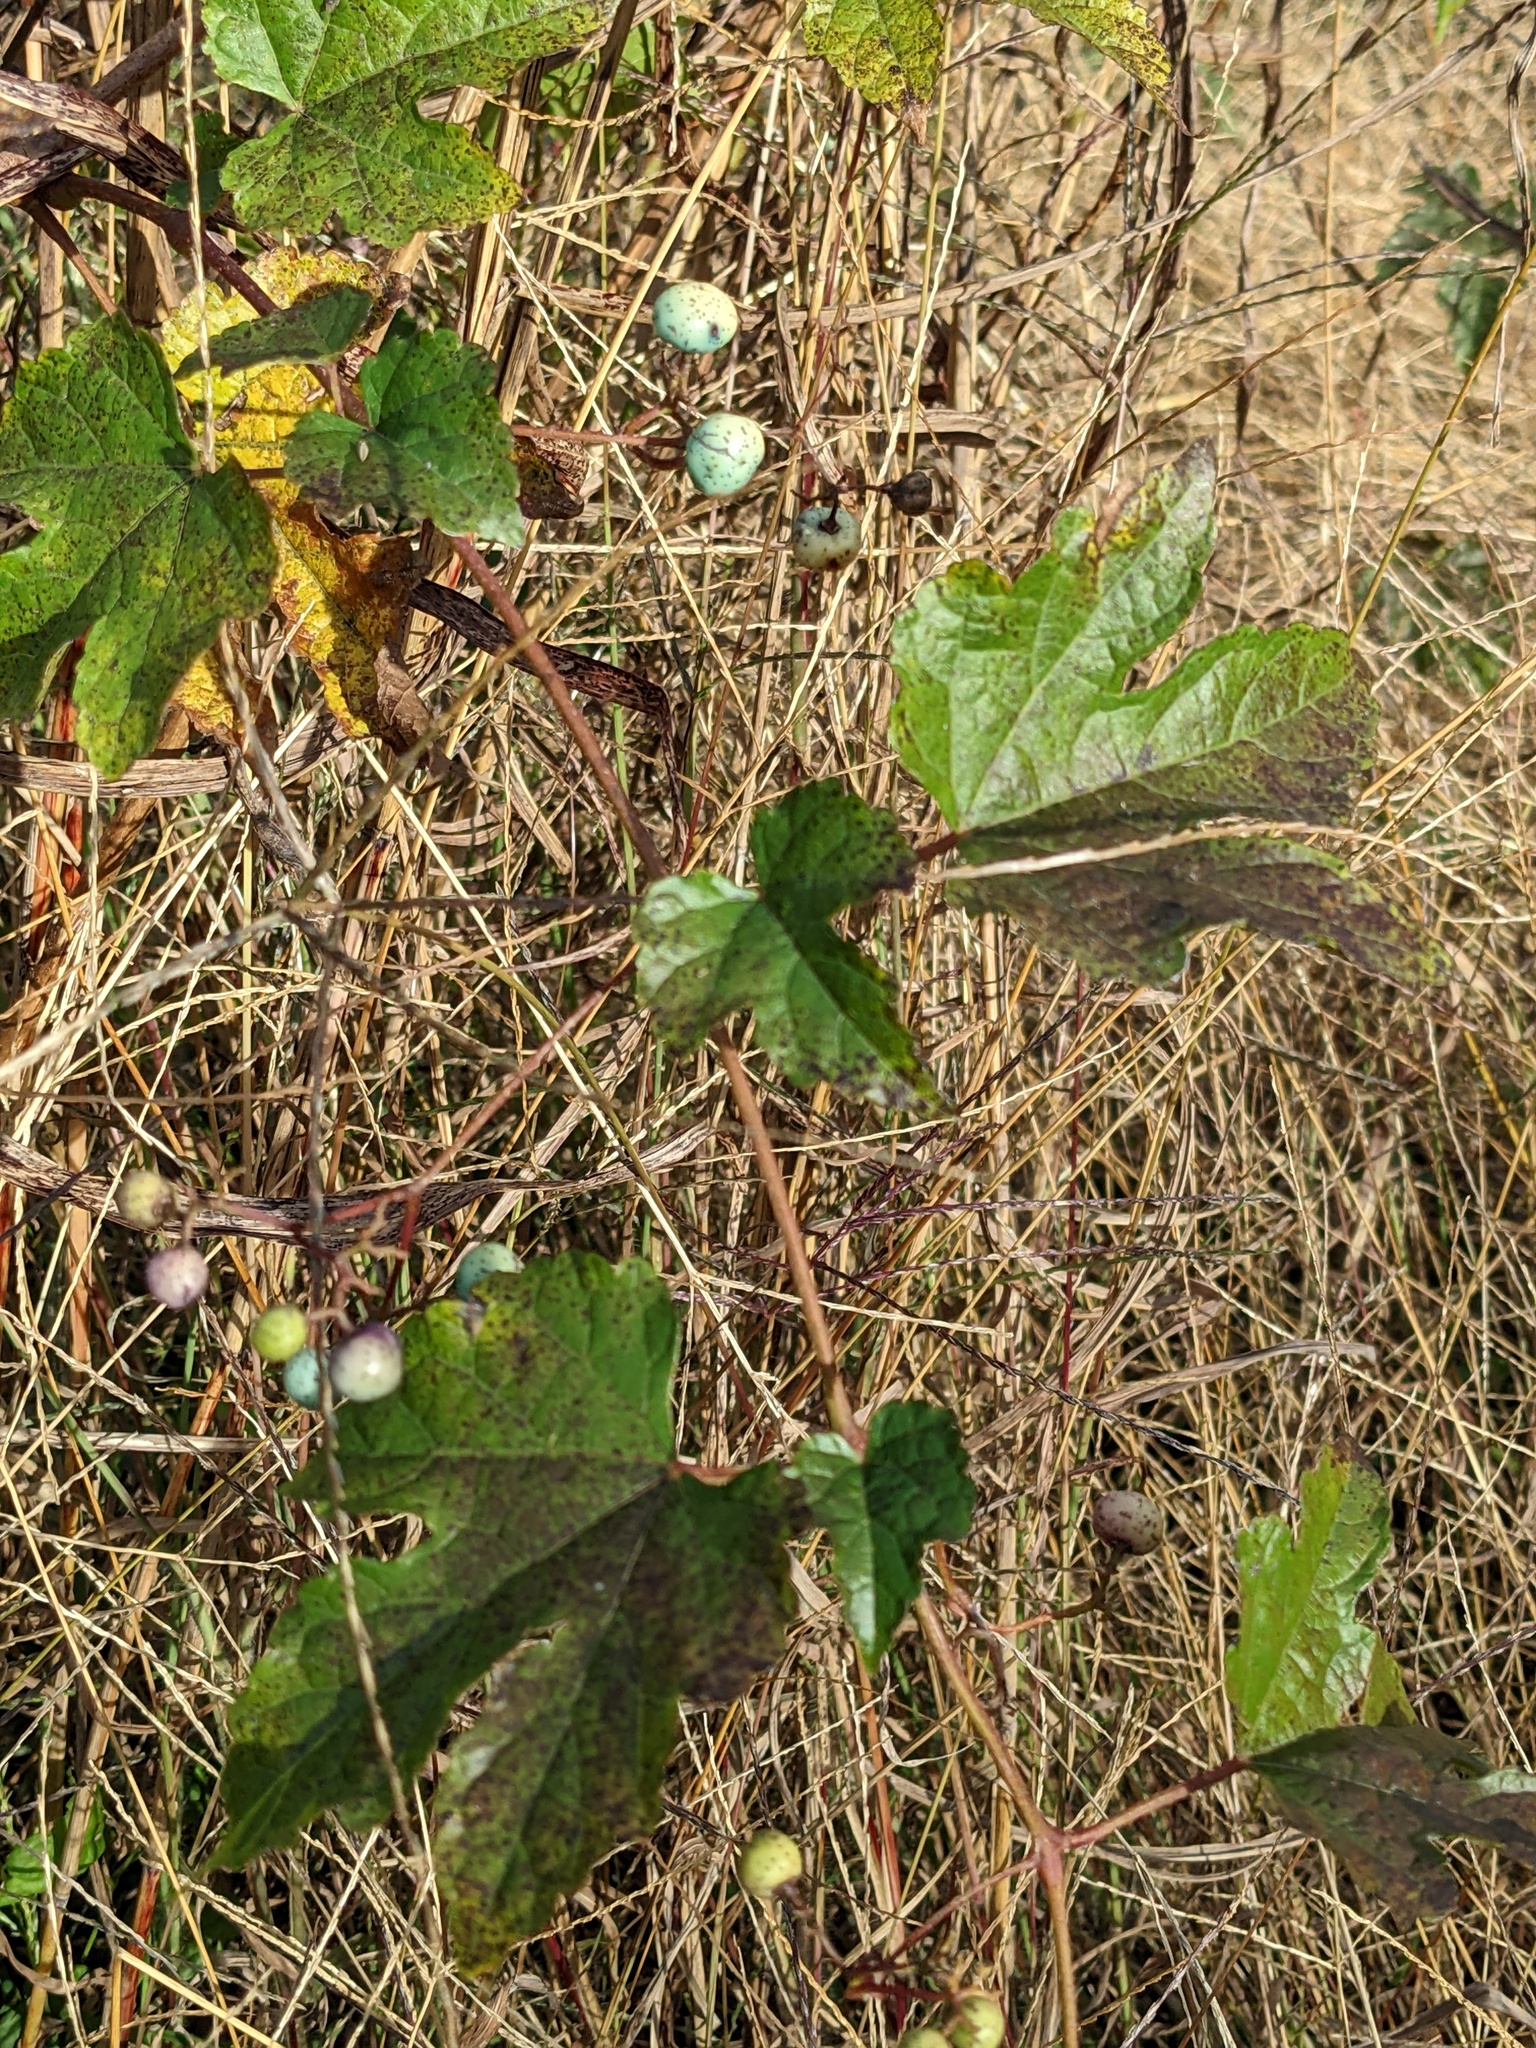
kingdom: Plantae
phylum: Tracheophyta
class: Magnoliopsida
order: Vitales
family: Vitaceae
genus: Ampelopsis
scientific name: Ampelopsis glandulosa
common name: Amur peppervine
